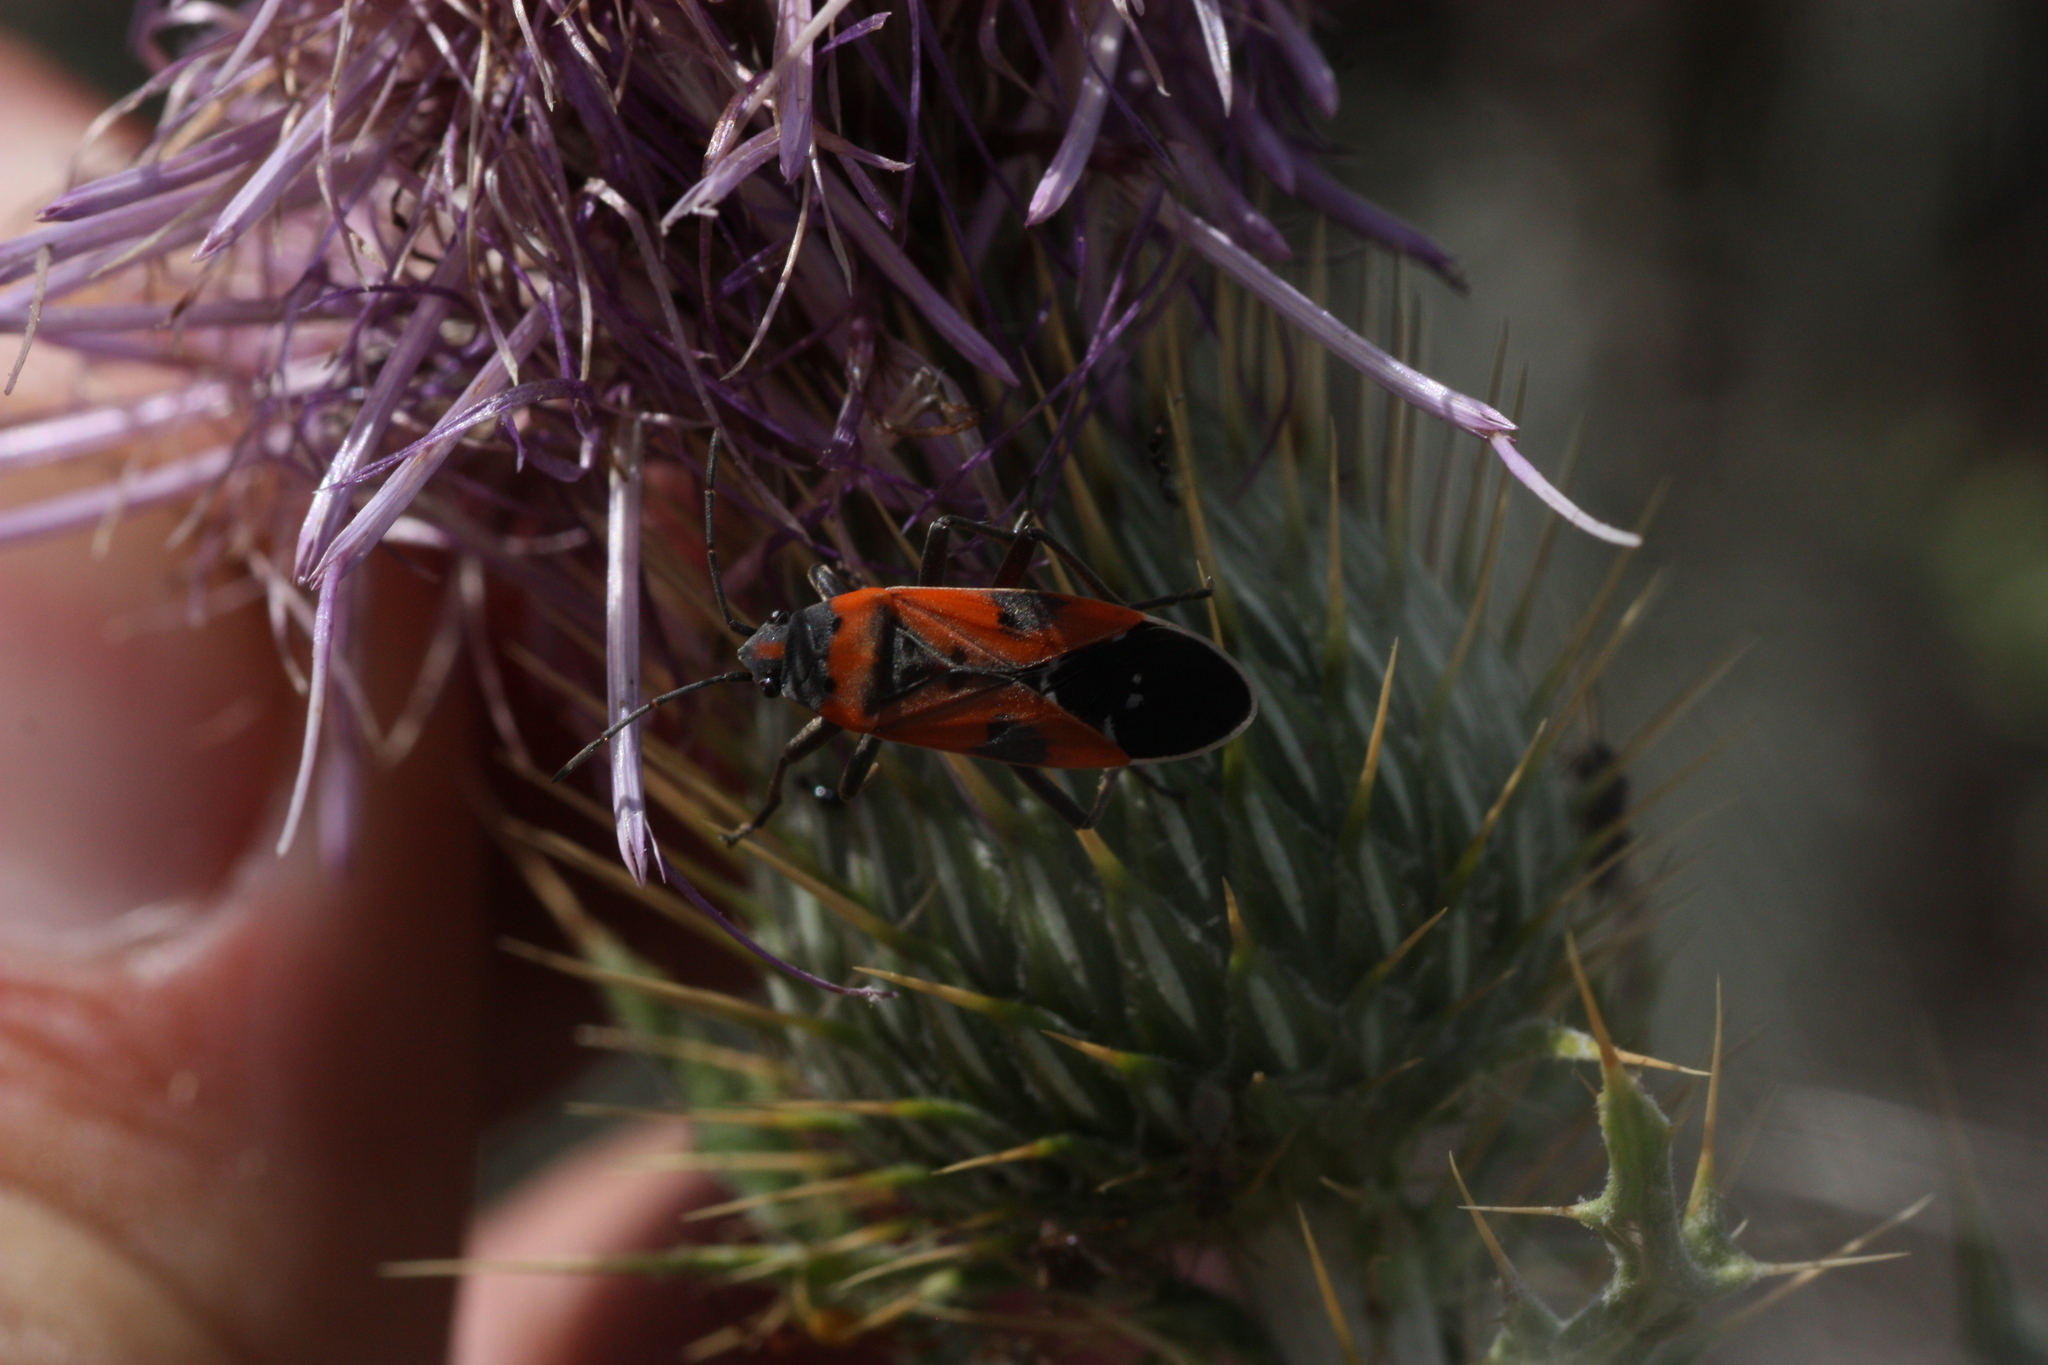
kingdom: Animalia
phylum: Arthropoda
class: Insecta
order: Hemiptera
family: Lygaeidae
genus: Lygaeus
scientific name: Lygaeus reclivatus
